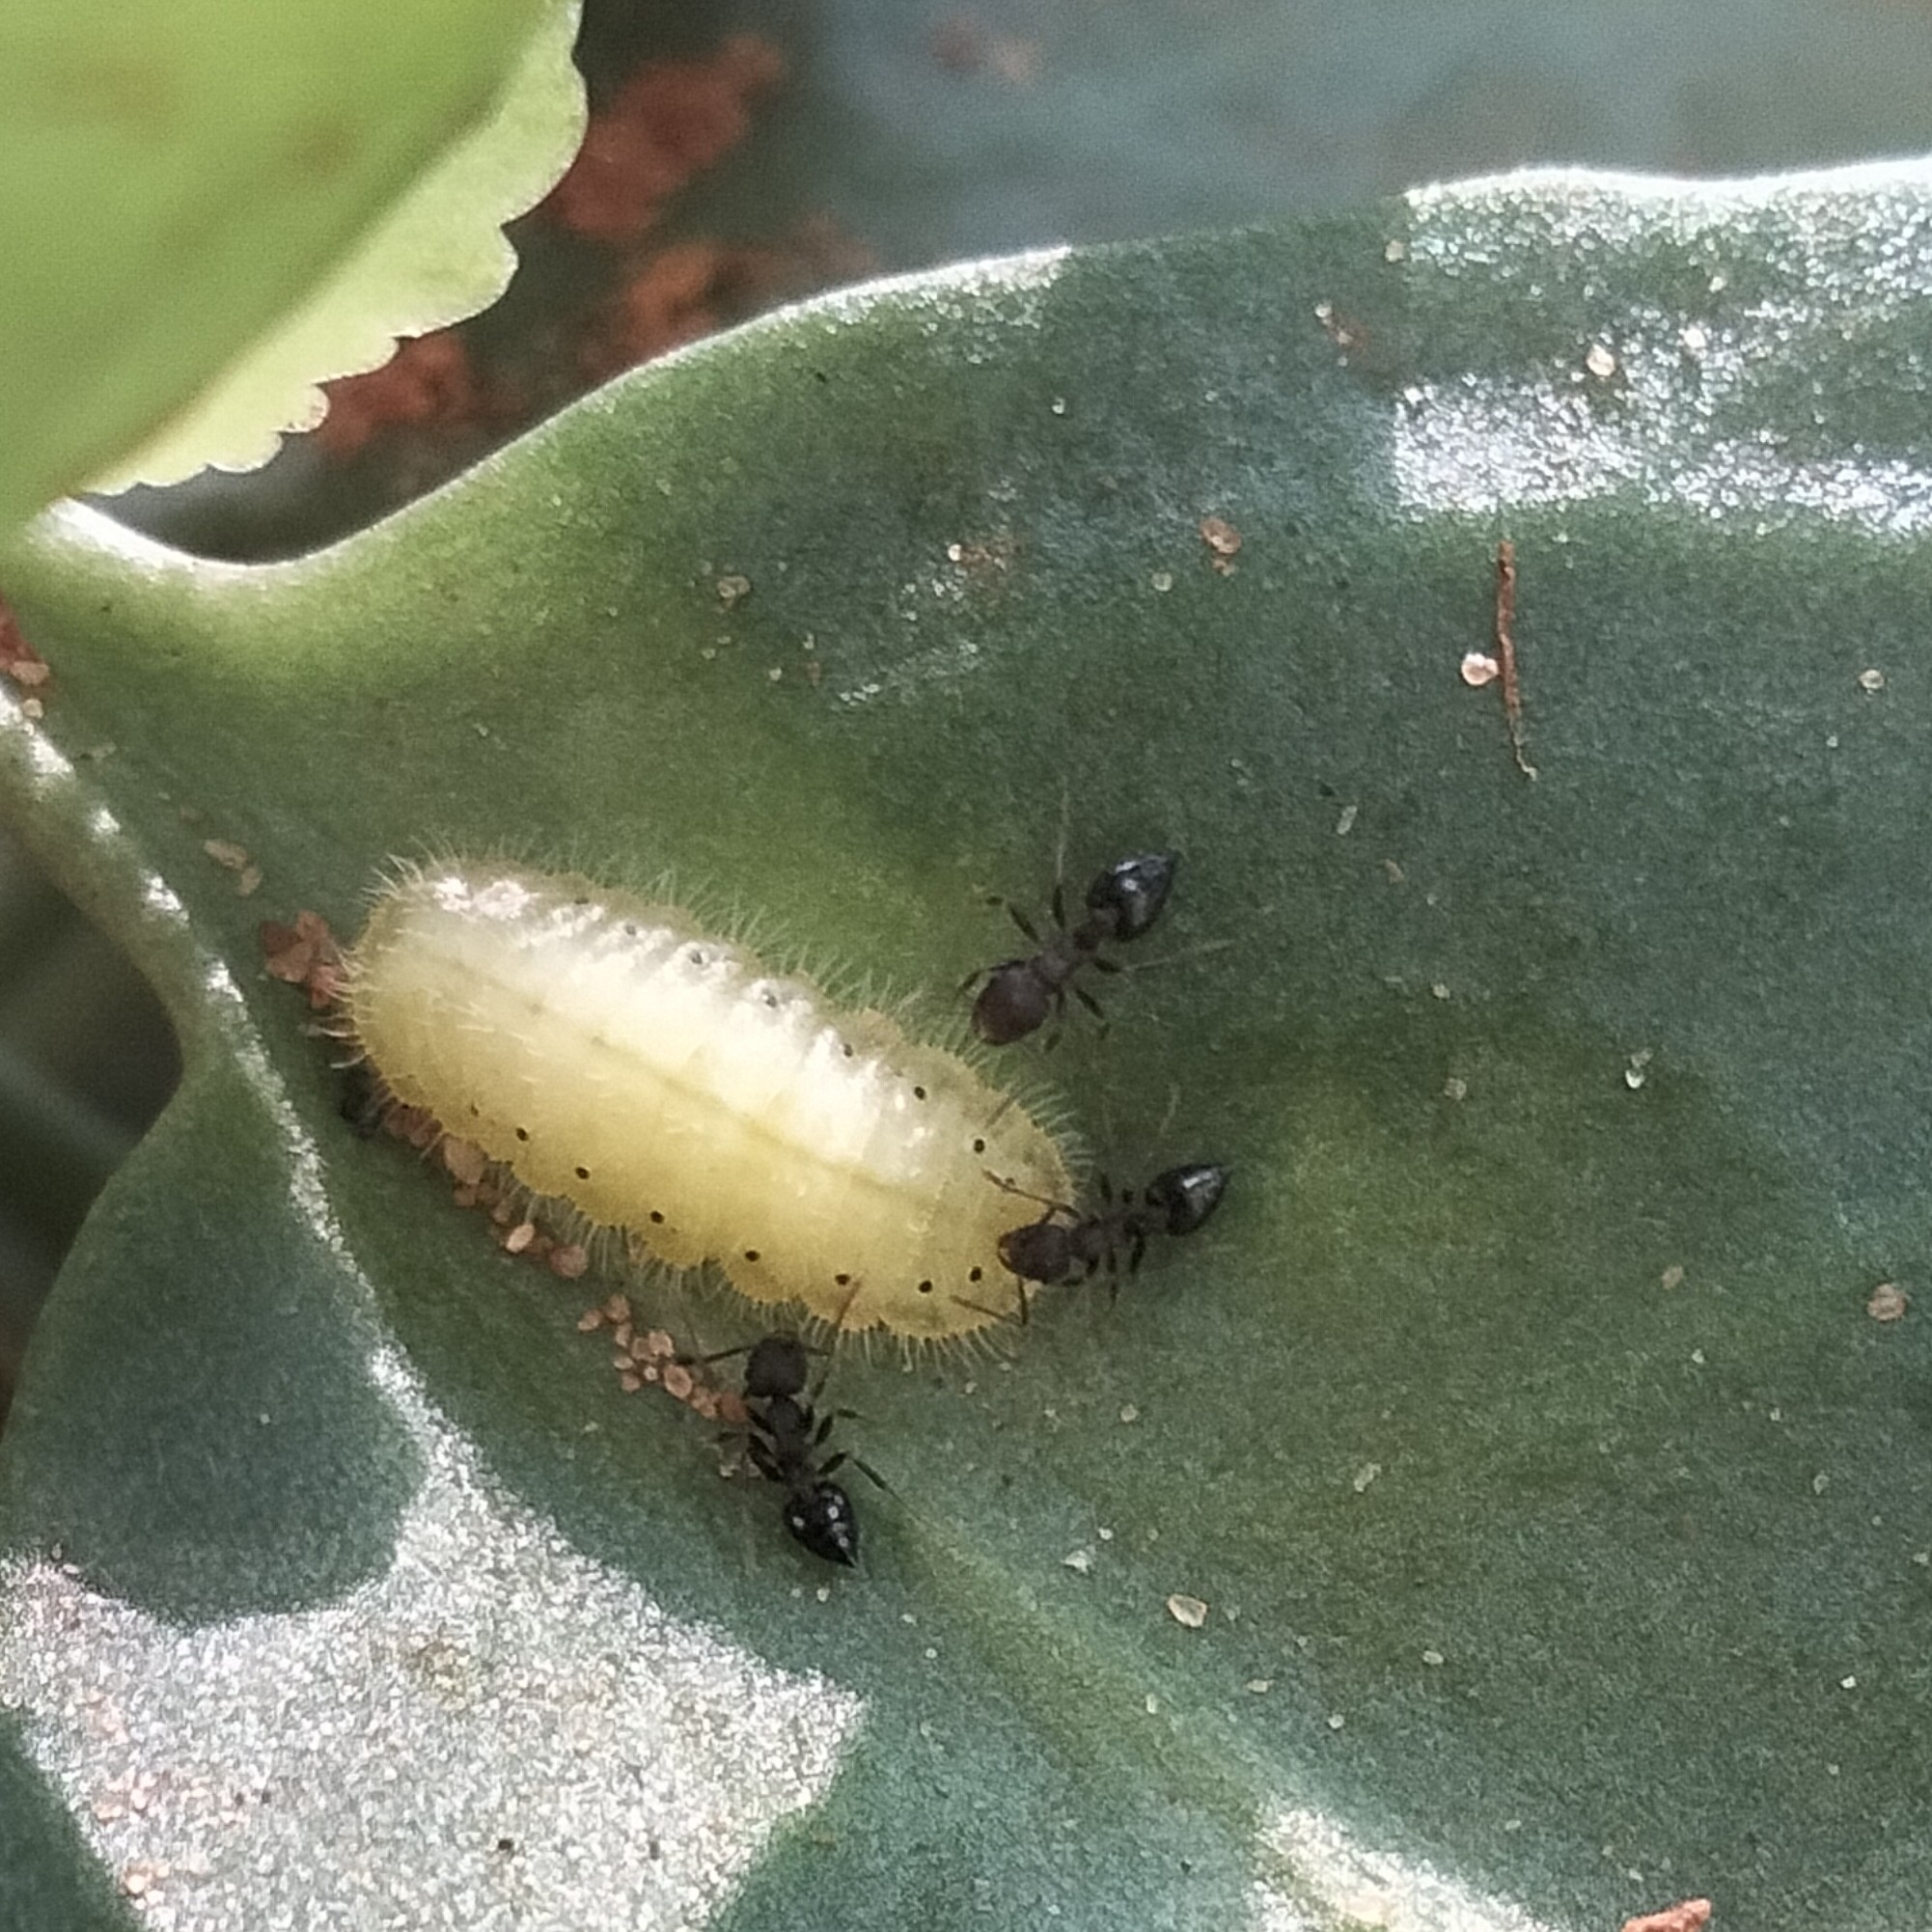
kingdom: Animalia
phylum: Arthropoda
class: Insecta
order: Lepidoptera
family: Lycaenidae
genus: Talicada
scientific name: Talicada nyseus
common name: Red pierrot
